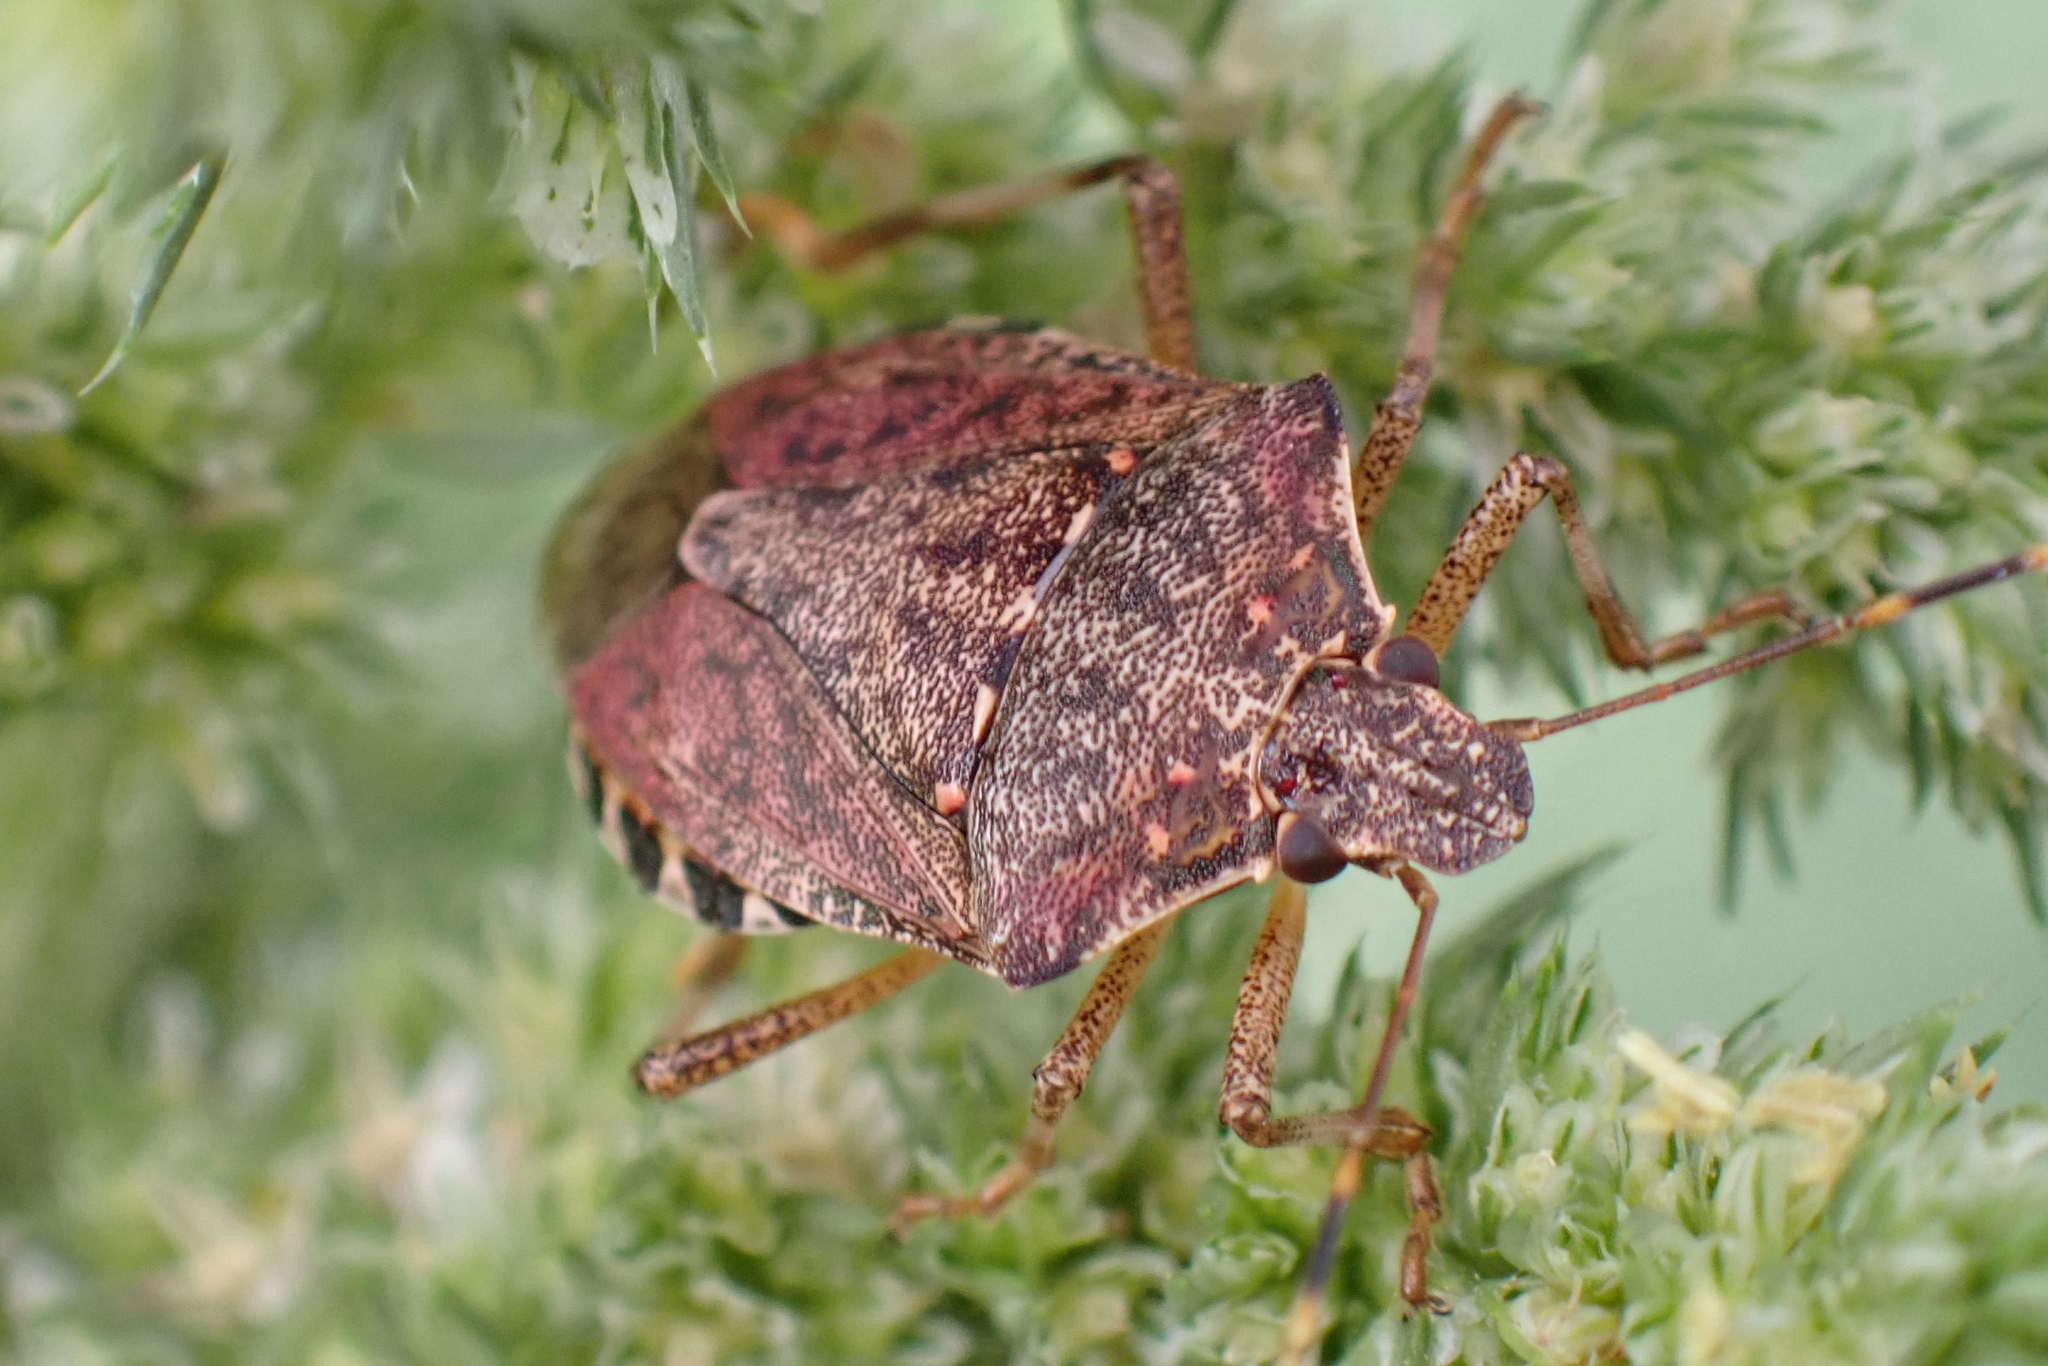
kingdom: Animalia
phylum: Arthropoda
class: Insecta
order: Hemiptera
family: Pentatomidae
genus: Halyomorpha
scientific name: Halyomorpha halys
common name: Brown marmorated stink bug
